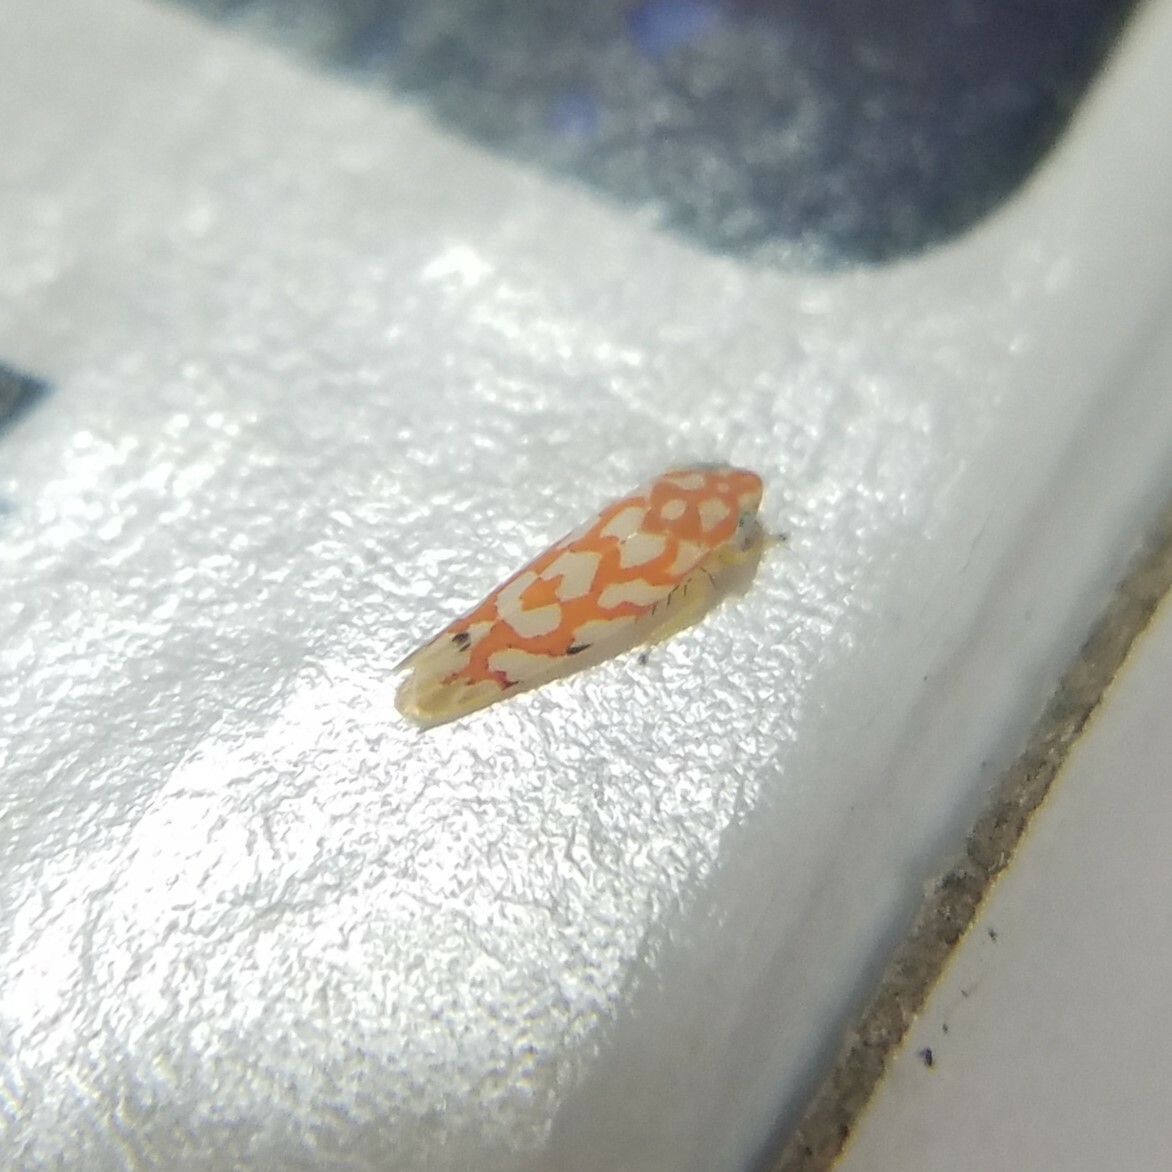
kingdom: Animalia
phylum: Arthropoda
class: Insecta
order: Hemiptera
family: Cicadellidae
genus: Eratoneura
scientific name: Eratoneura comoides
